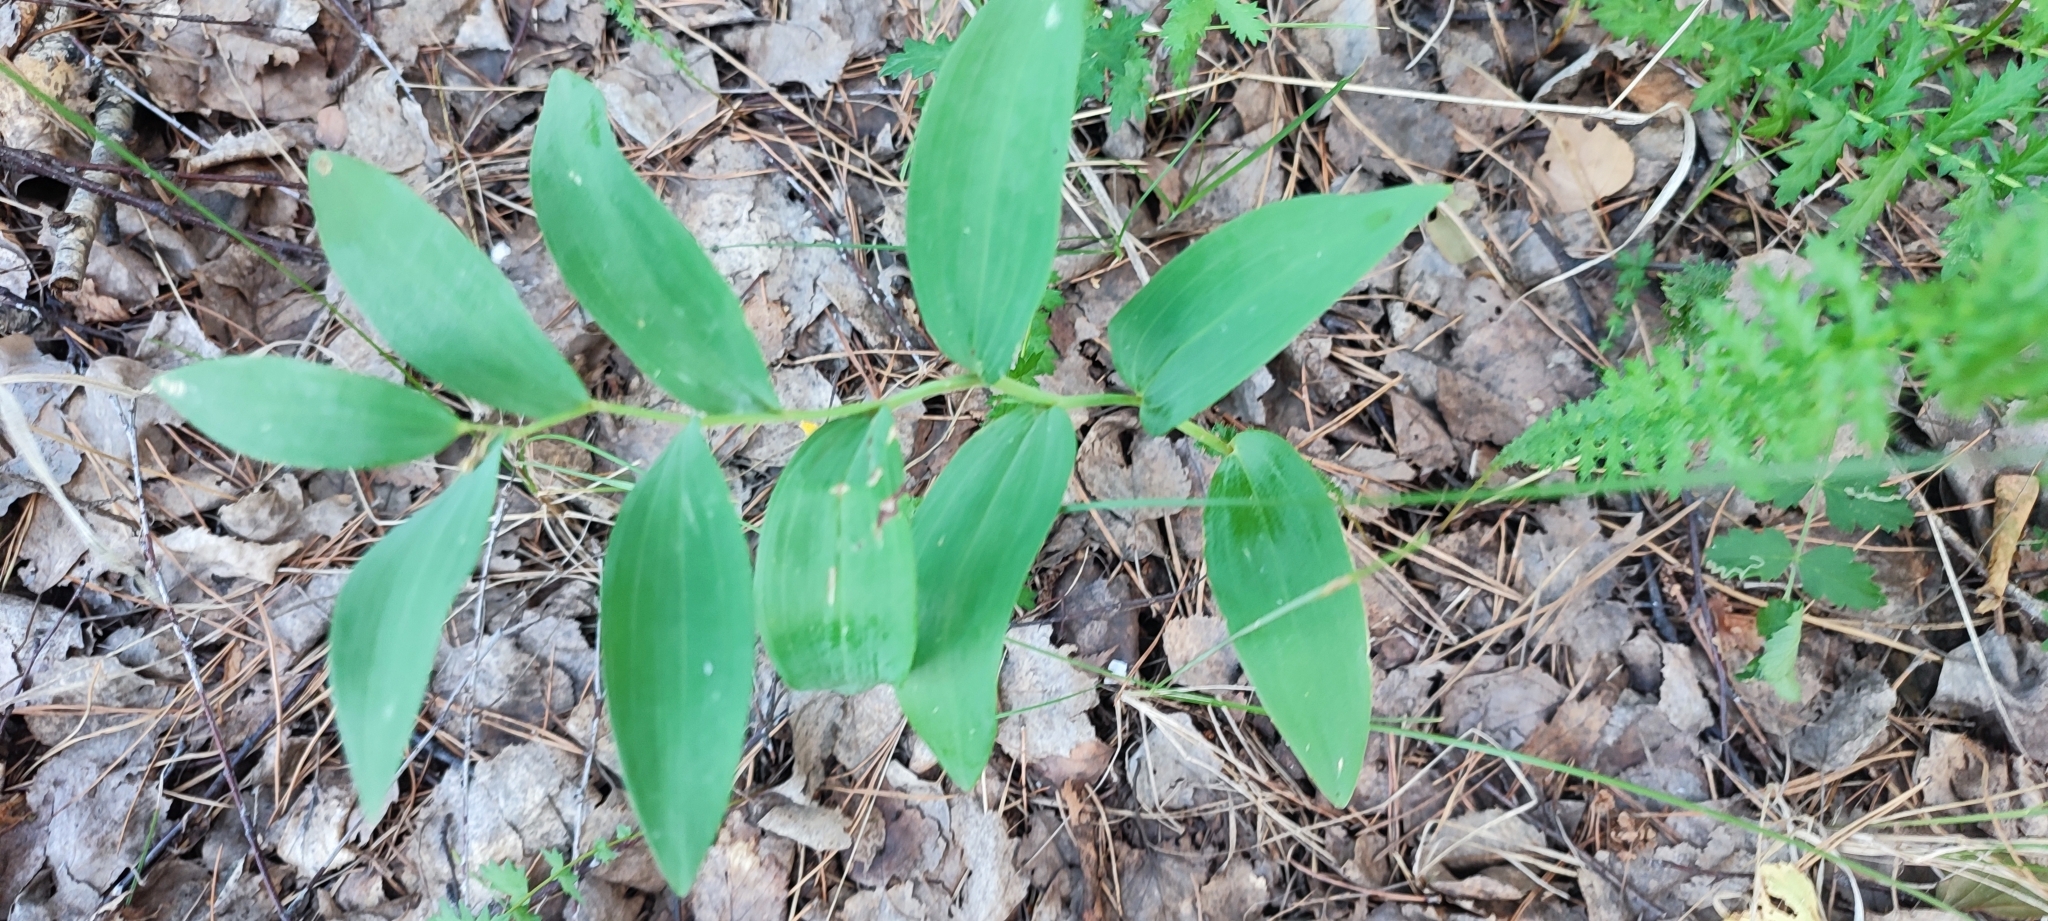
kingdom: Plantae
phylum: Tracheophyta
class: Liliopsida
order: Asparagales
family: Asparagaceae
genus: Polygonatum
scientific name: Polygonatum odoratum
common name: Angular solomon's-seal
